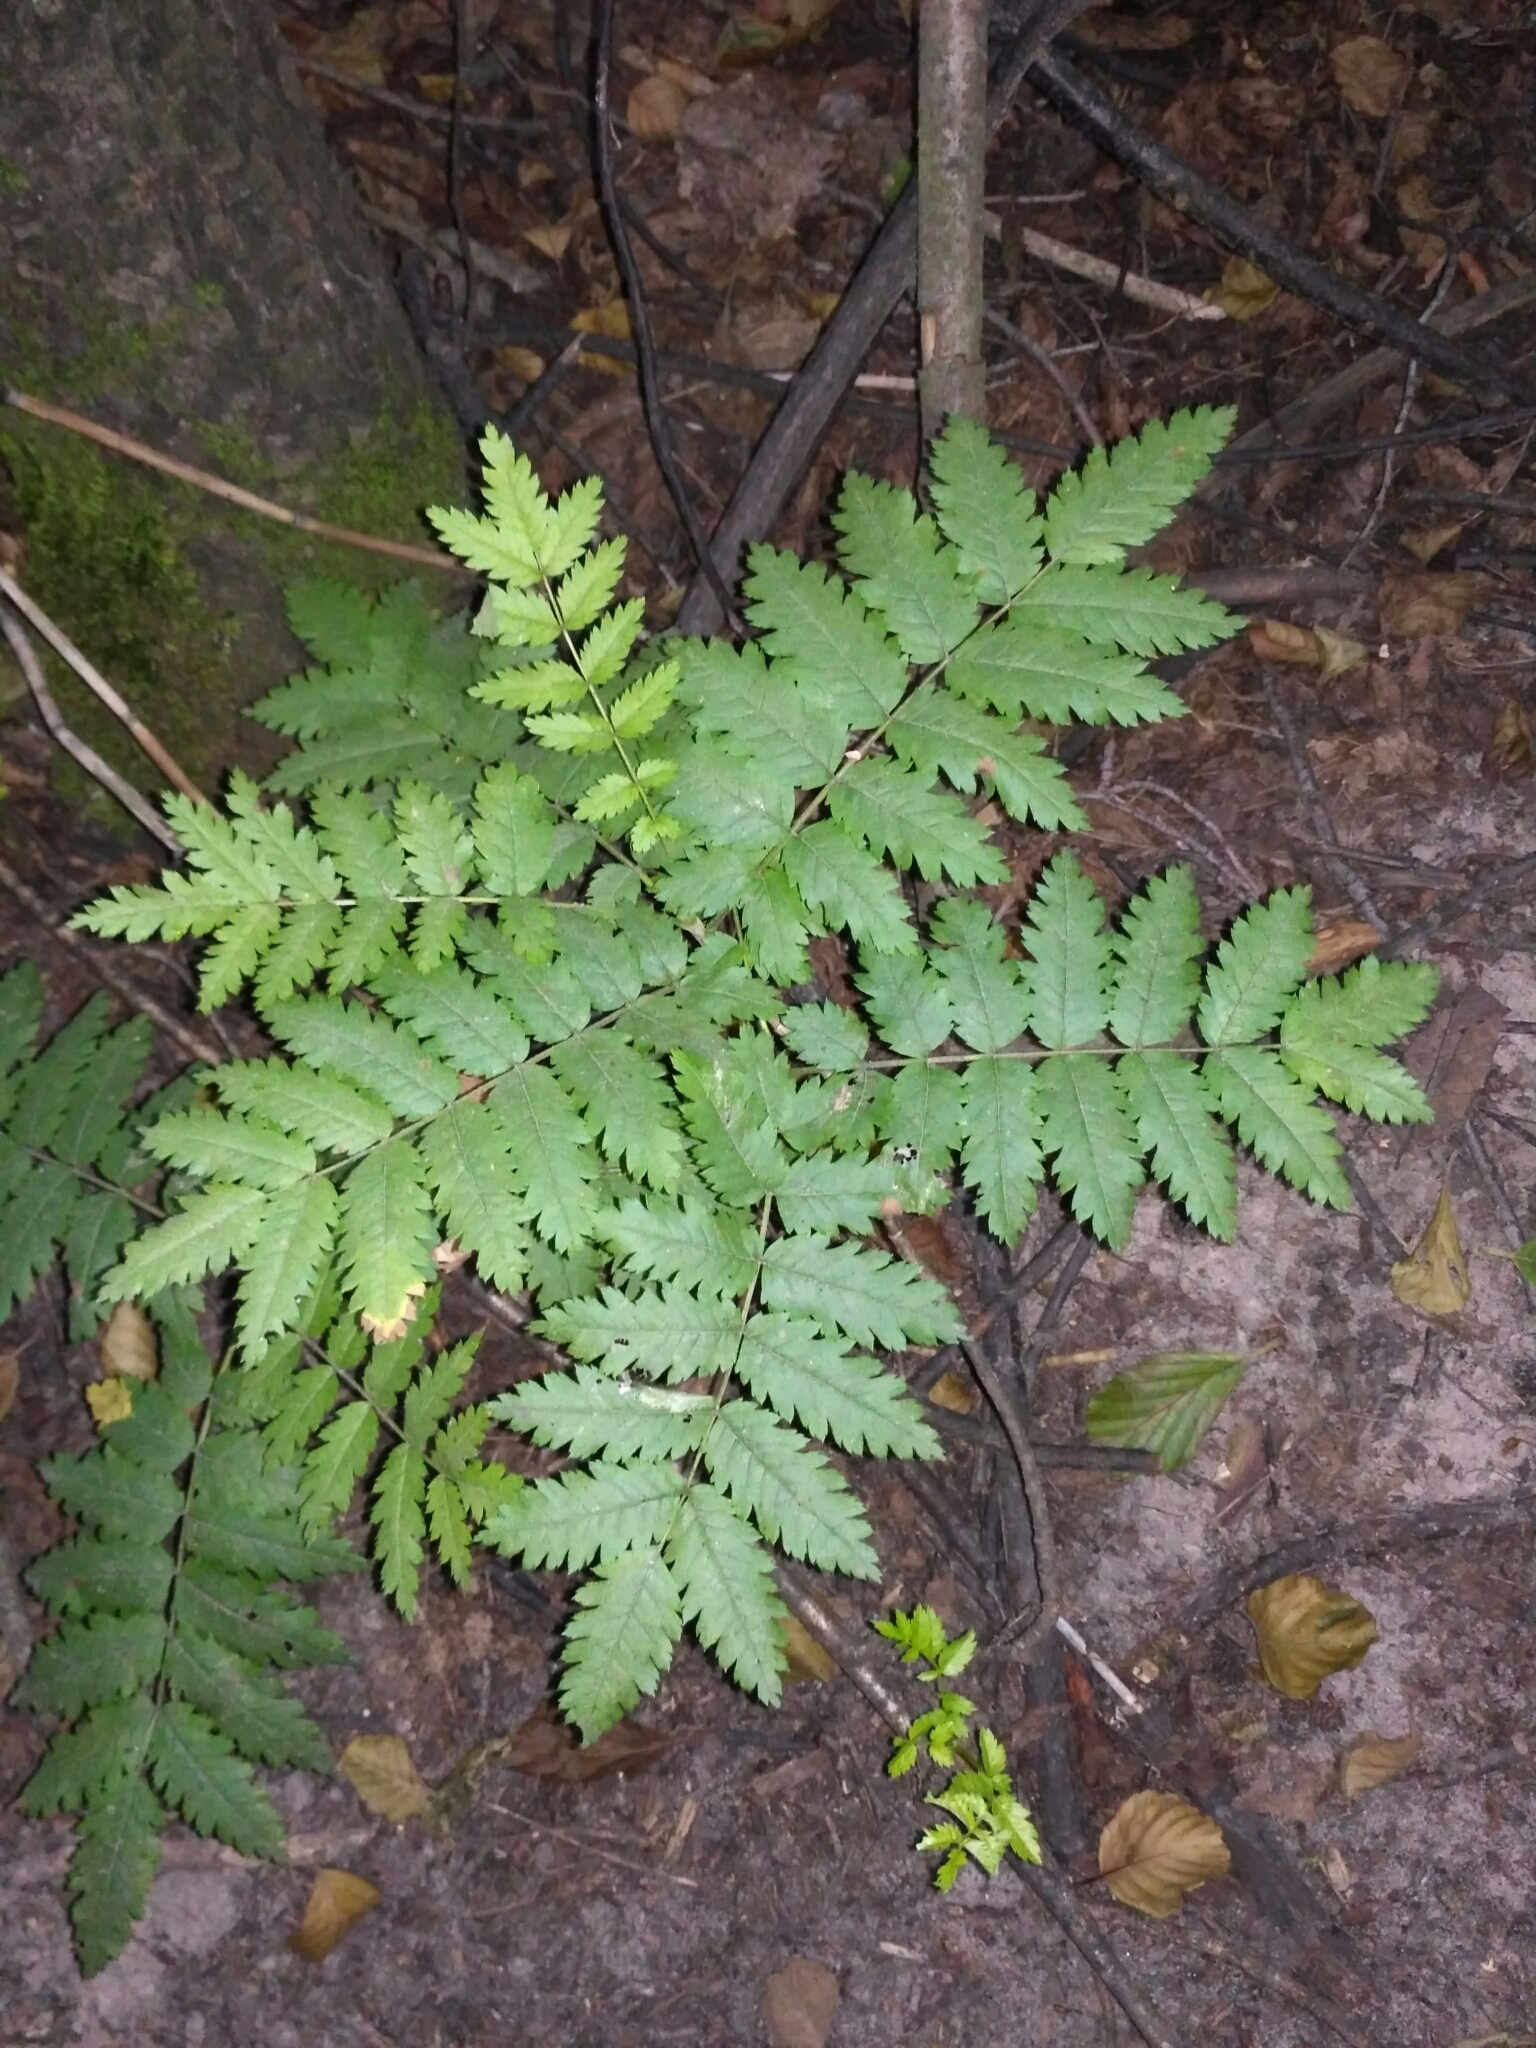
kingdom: Plantae
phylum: Tracheophyta
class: Magnoliopsida
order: Rosales
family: Rosaceae
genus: Sorbus
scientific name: Sorbus aucuparia
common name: Rowan
